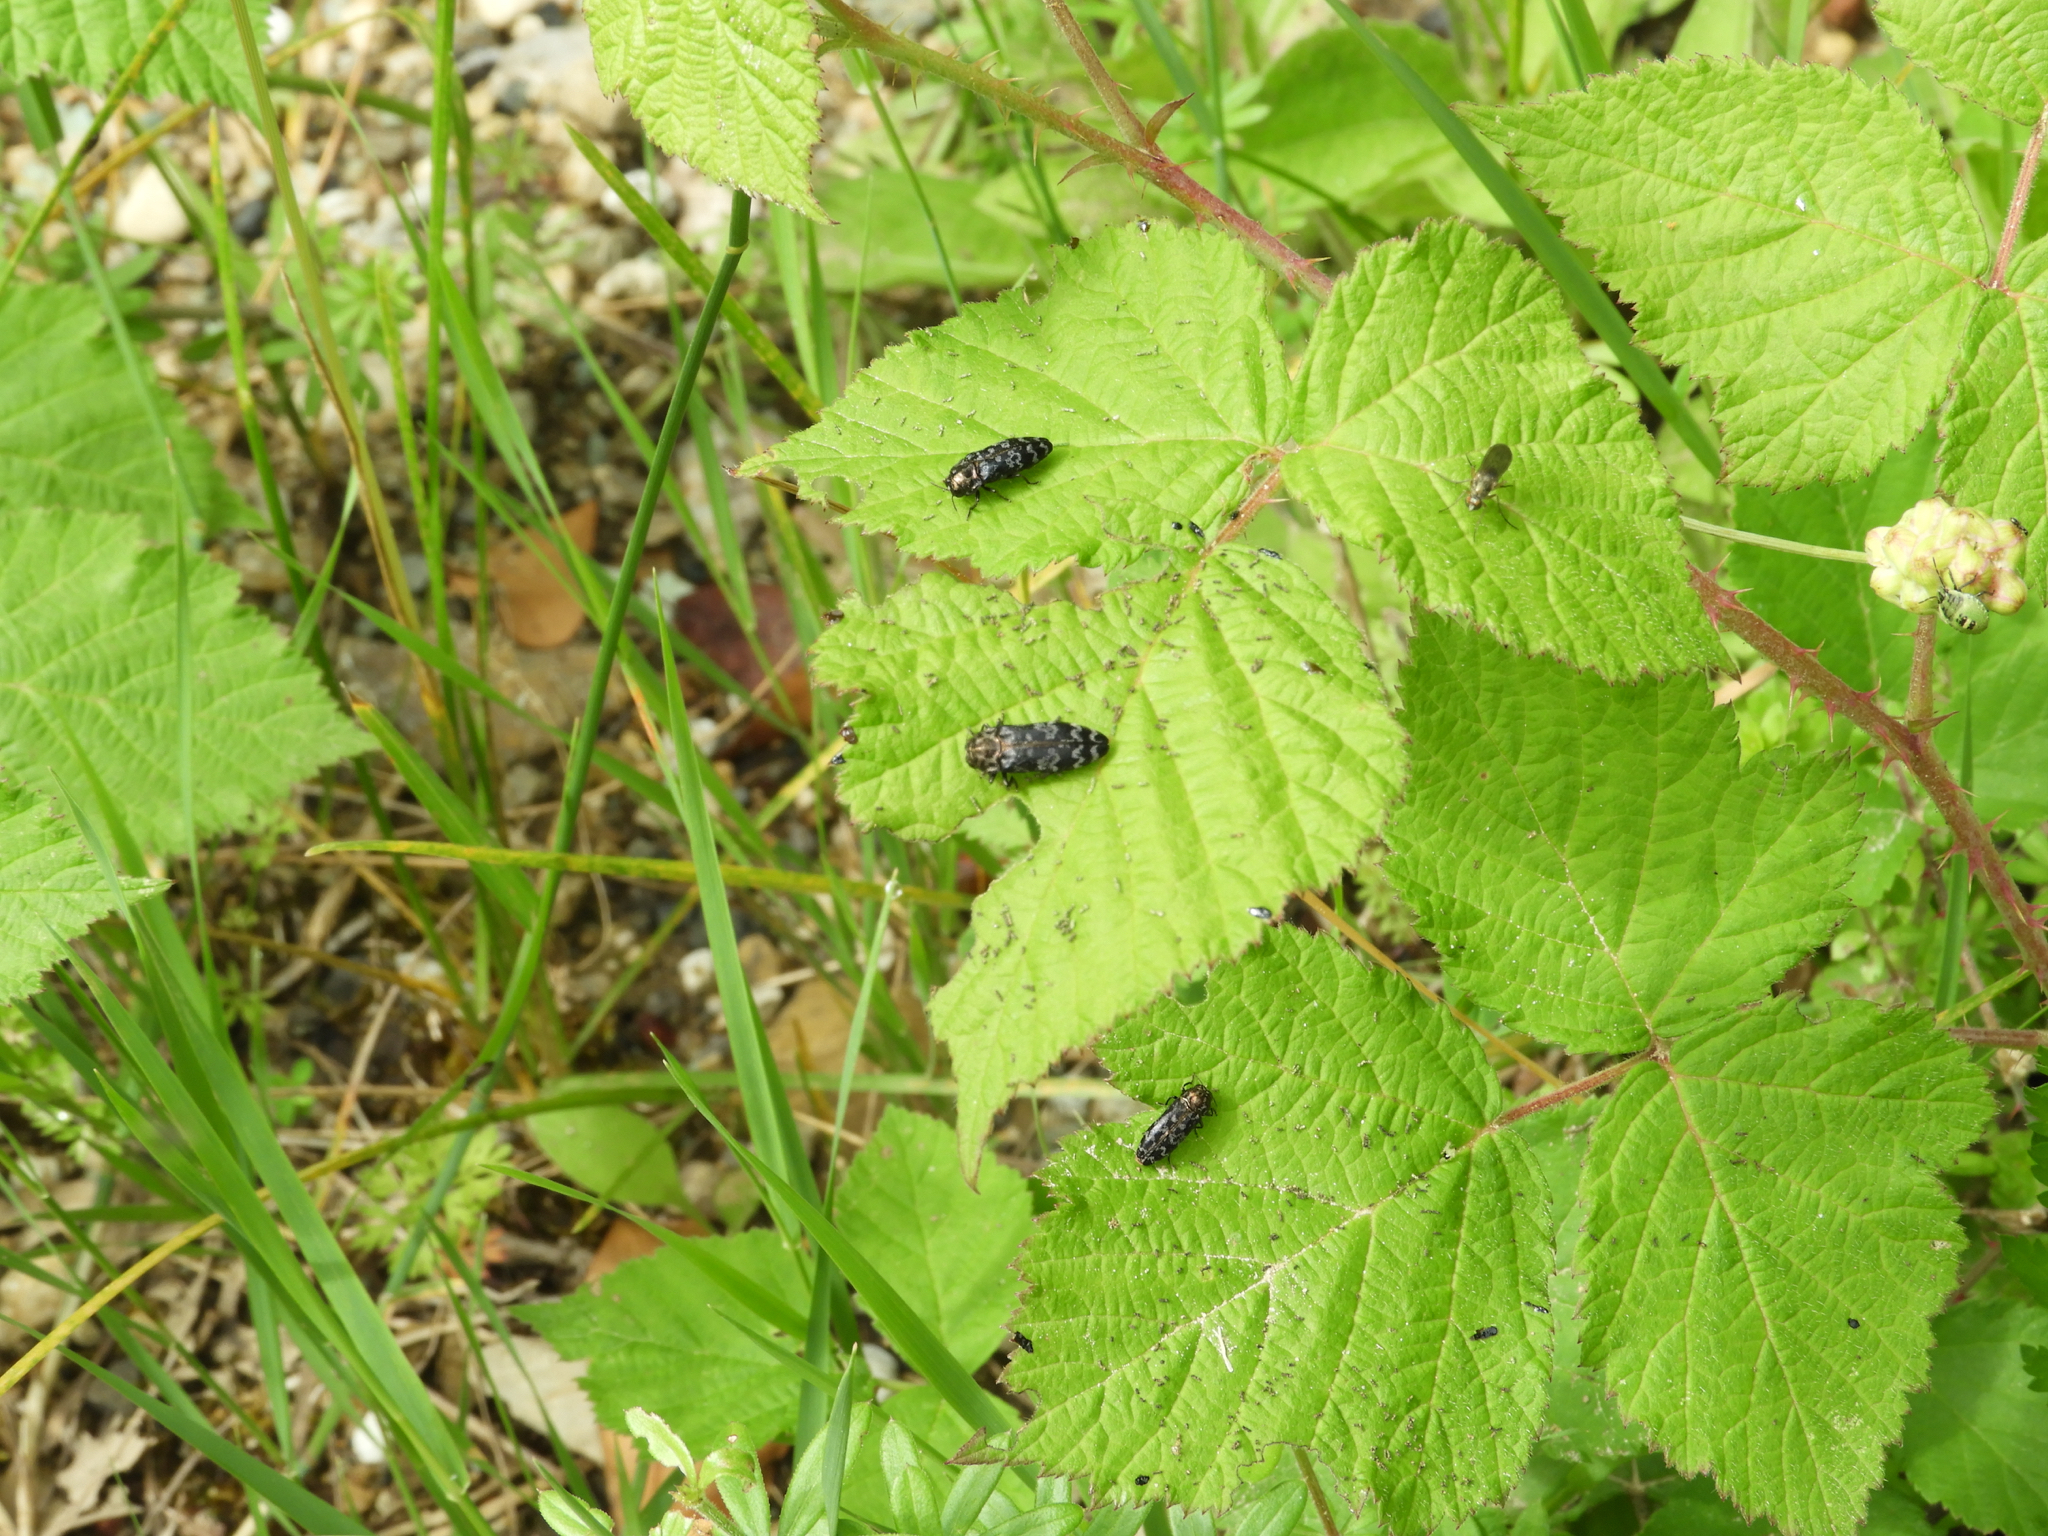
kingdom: Animalia
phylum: Arthropoda
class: Insecta
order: Coleoptera
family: Buprestidae
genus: Coraebus
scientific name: Coraebus rubi
